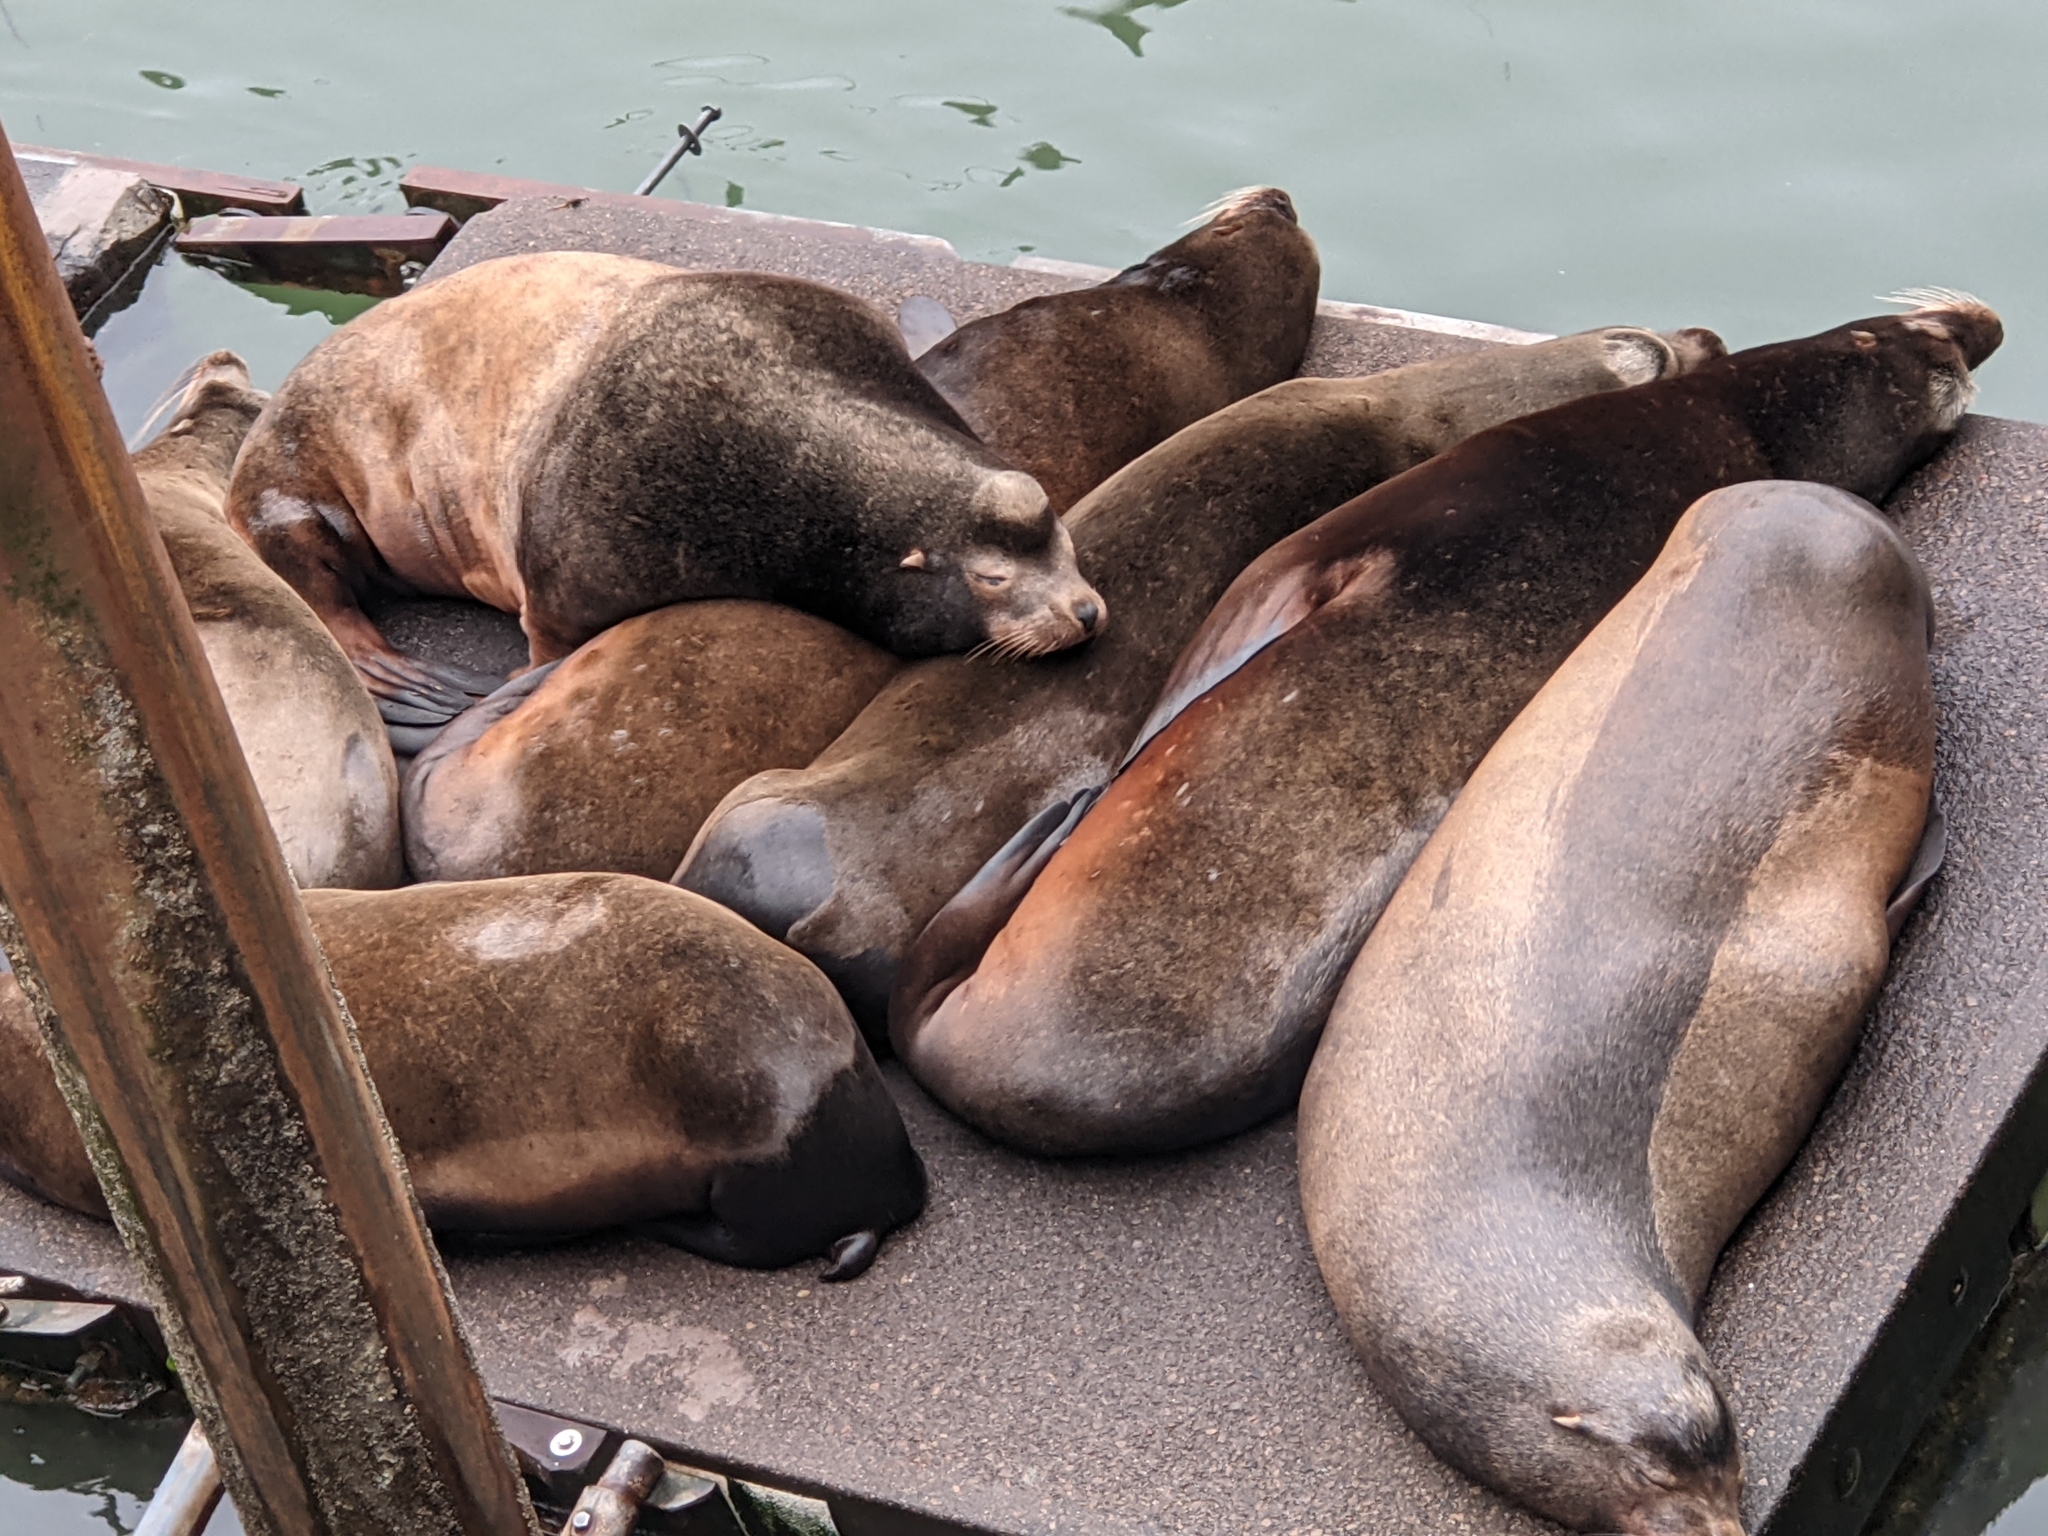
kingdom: Animalia
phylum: Chordata
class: Mammalia
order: Carnivora
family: Otariidae
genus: Zalophus
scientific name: Zalophus californianus
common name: California sea lion
